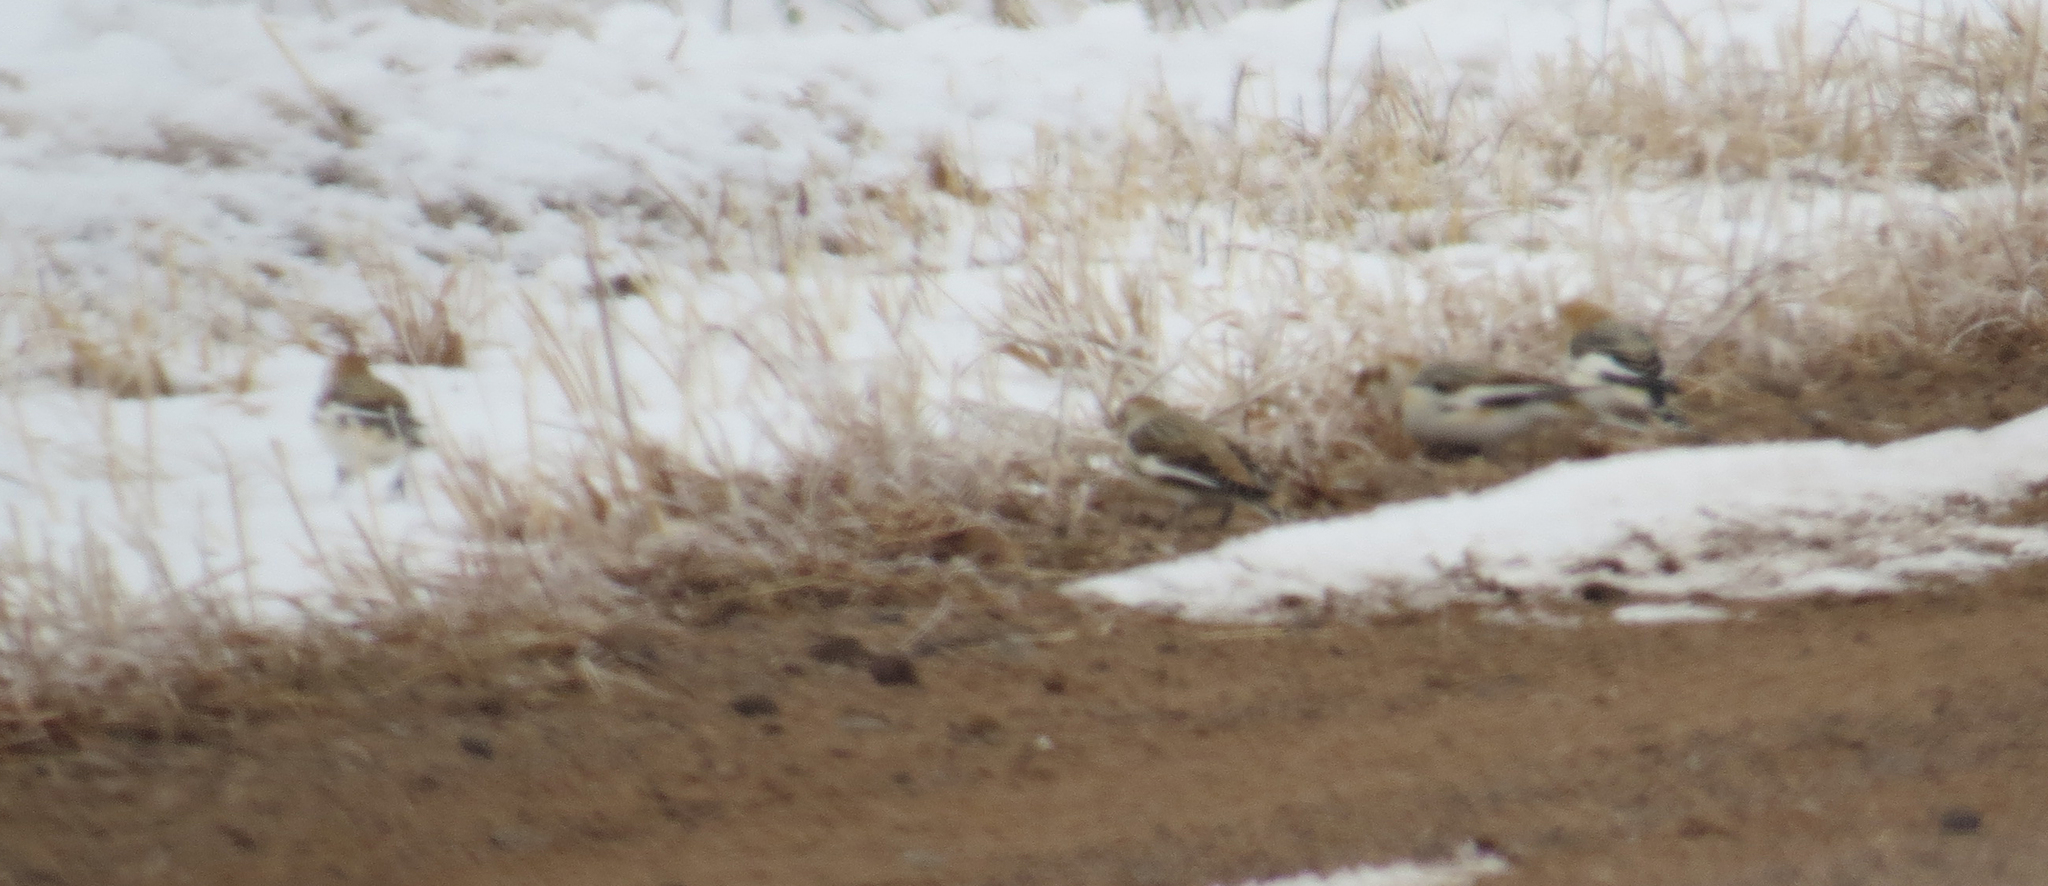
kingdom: Animalia
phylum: Chordata
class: Aves
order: Passeriformes
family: Calcariidae
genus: Plectrophenax
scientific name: Plectrophenax nivalis
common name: Snow bunting
